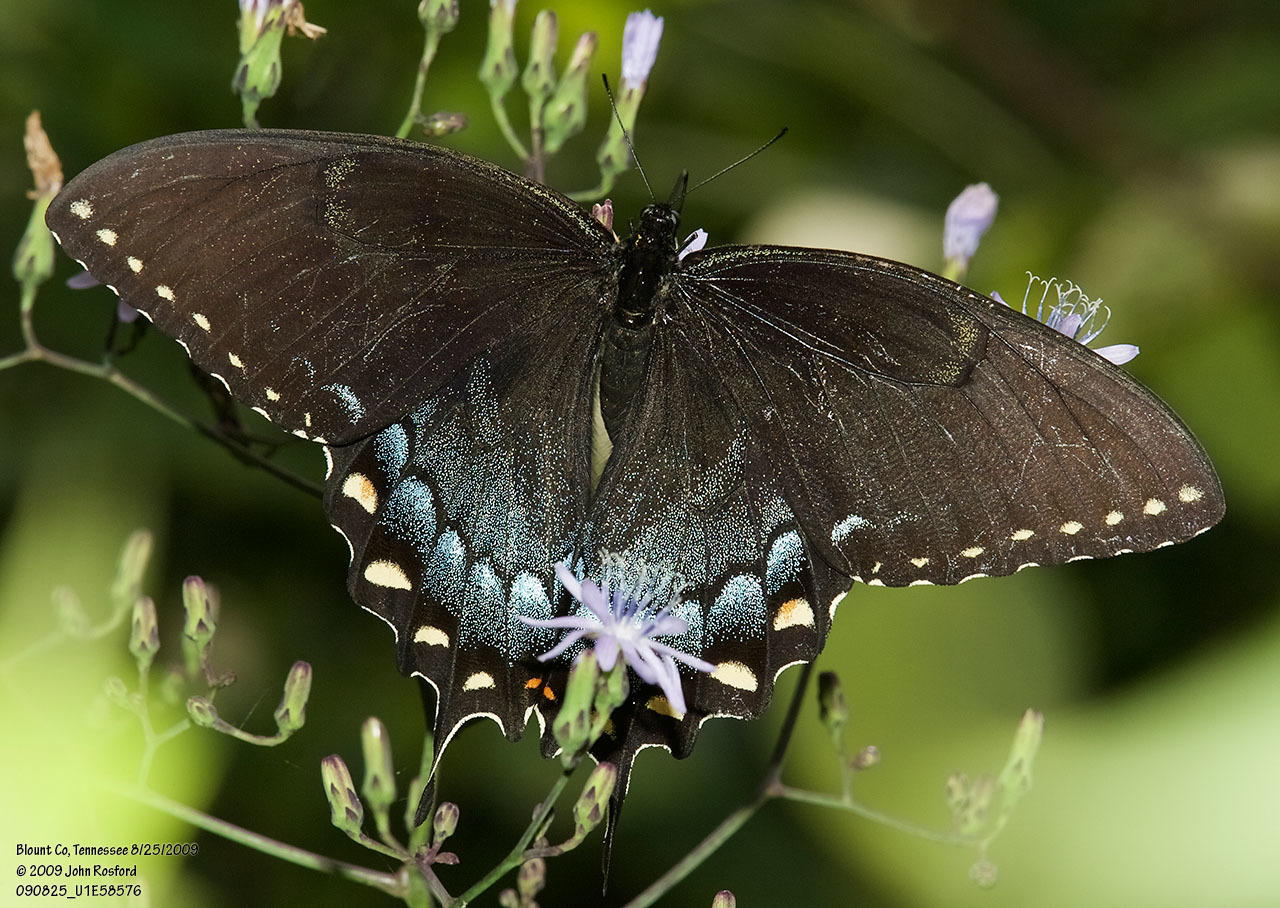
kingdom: Animalia
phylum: Arthropoda
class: Insecta
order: Lepidoptera
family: Papilionidae
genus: Papilio
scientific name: Papilio glaucus
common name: Tiger swallowtail
